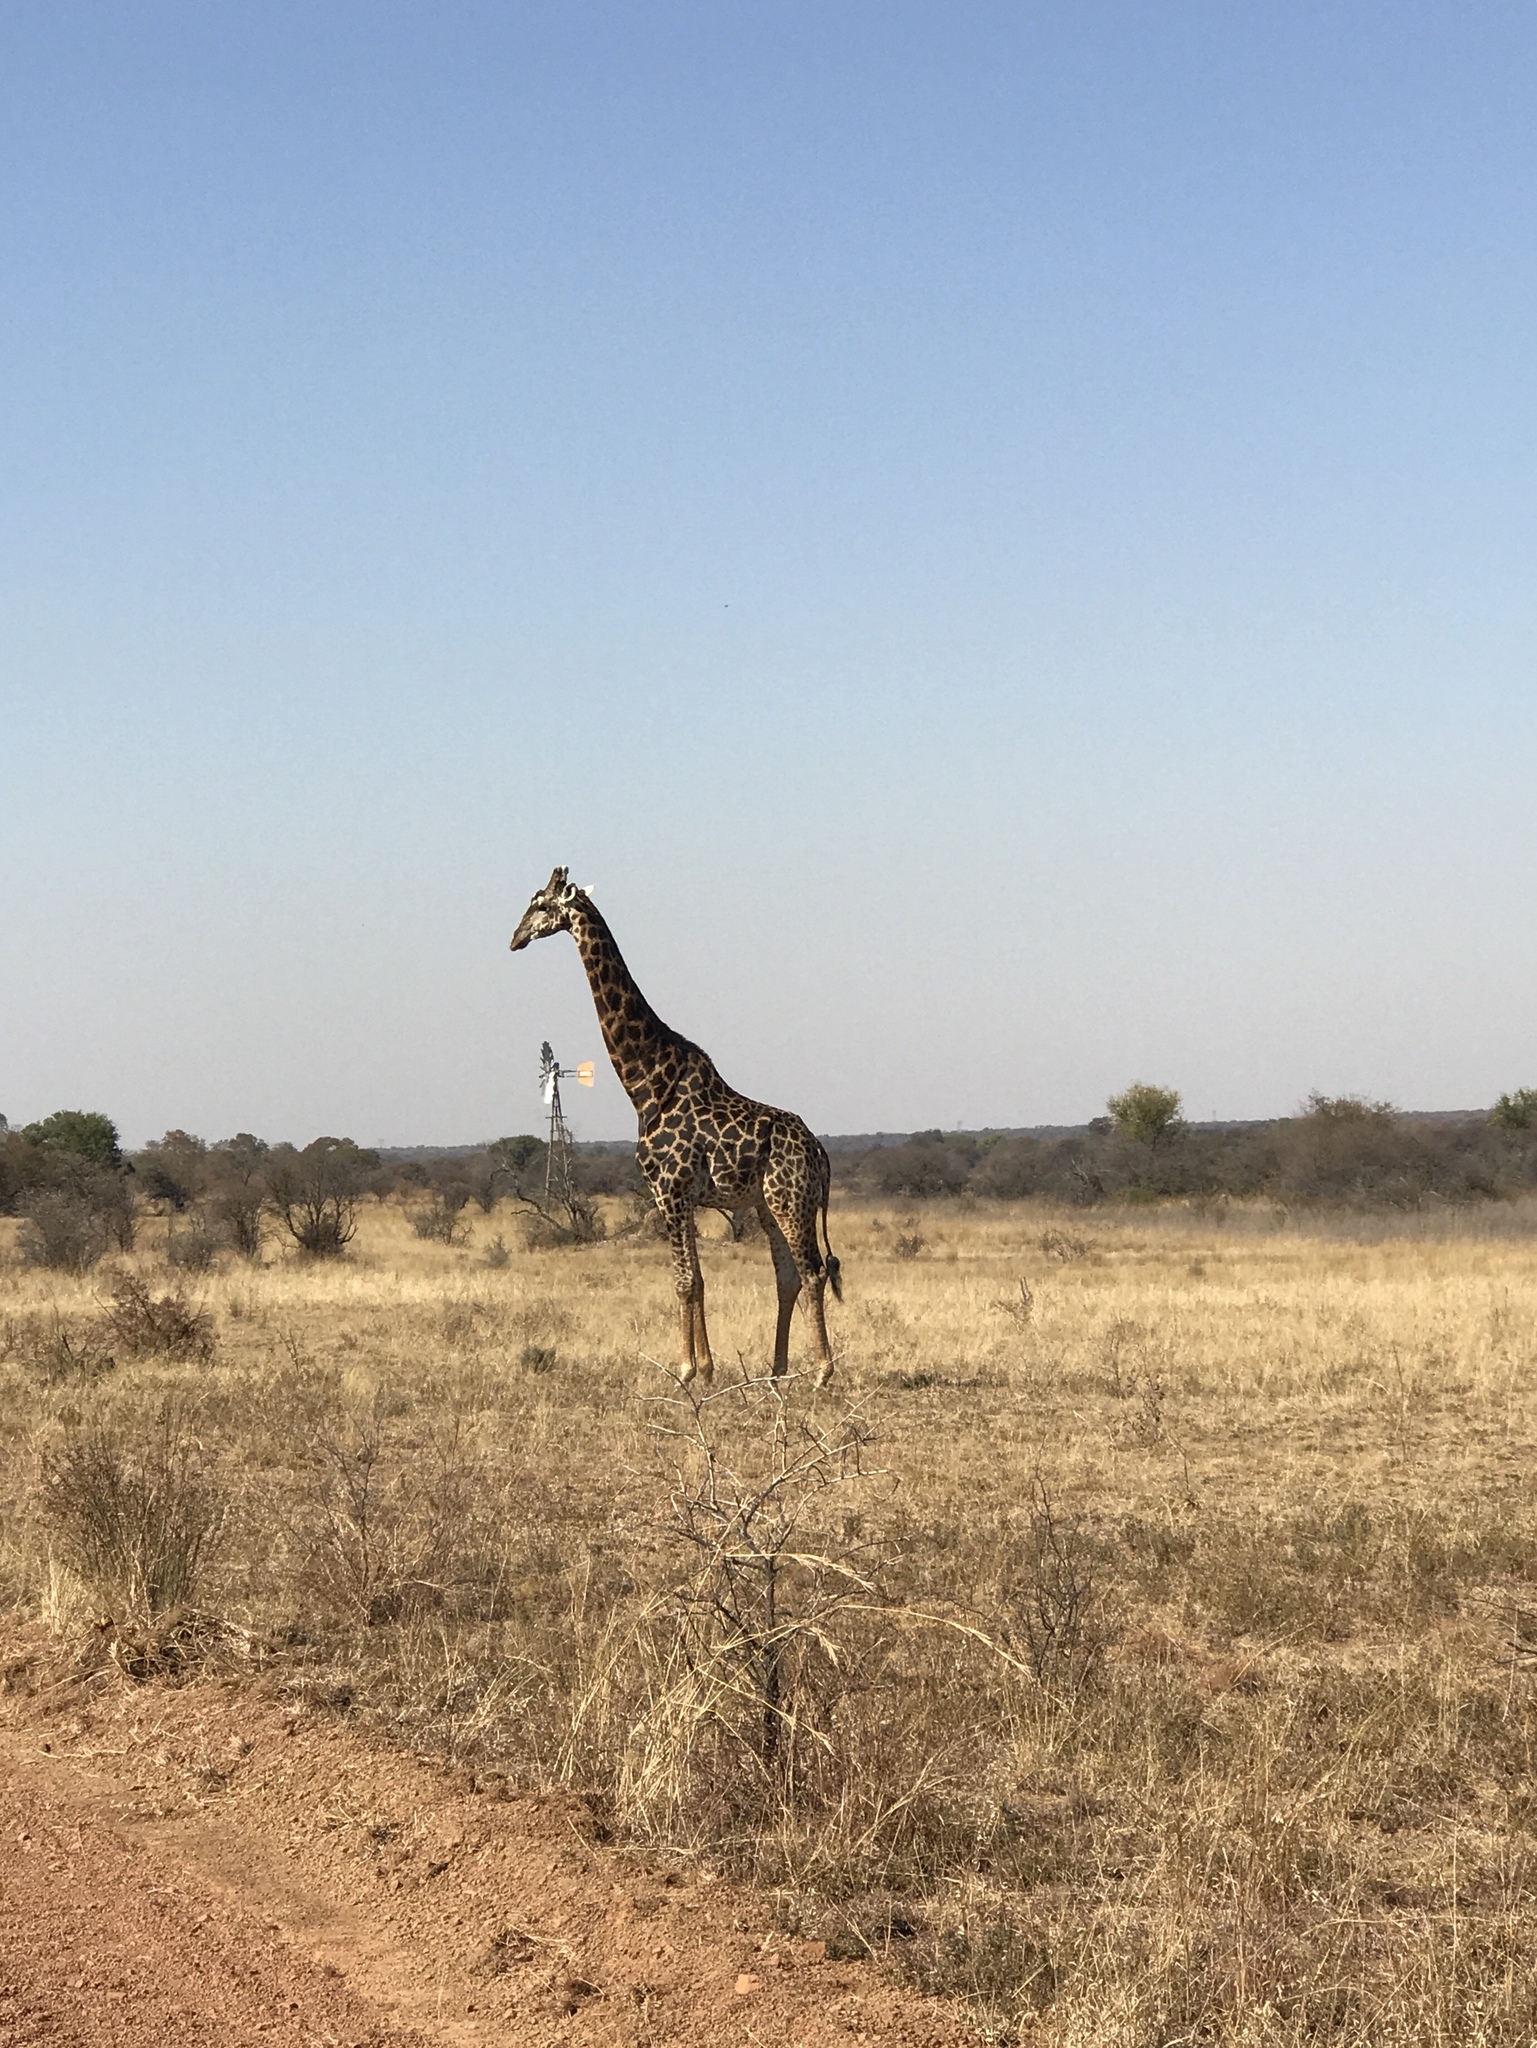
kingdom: Animalia
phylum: Chordata
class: Mammalia
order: Artiodactyla
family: Giraffidae
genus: Giraffa
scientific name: Giraffa giraffa
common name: Southern giraffe
